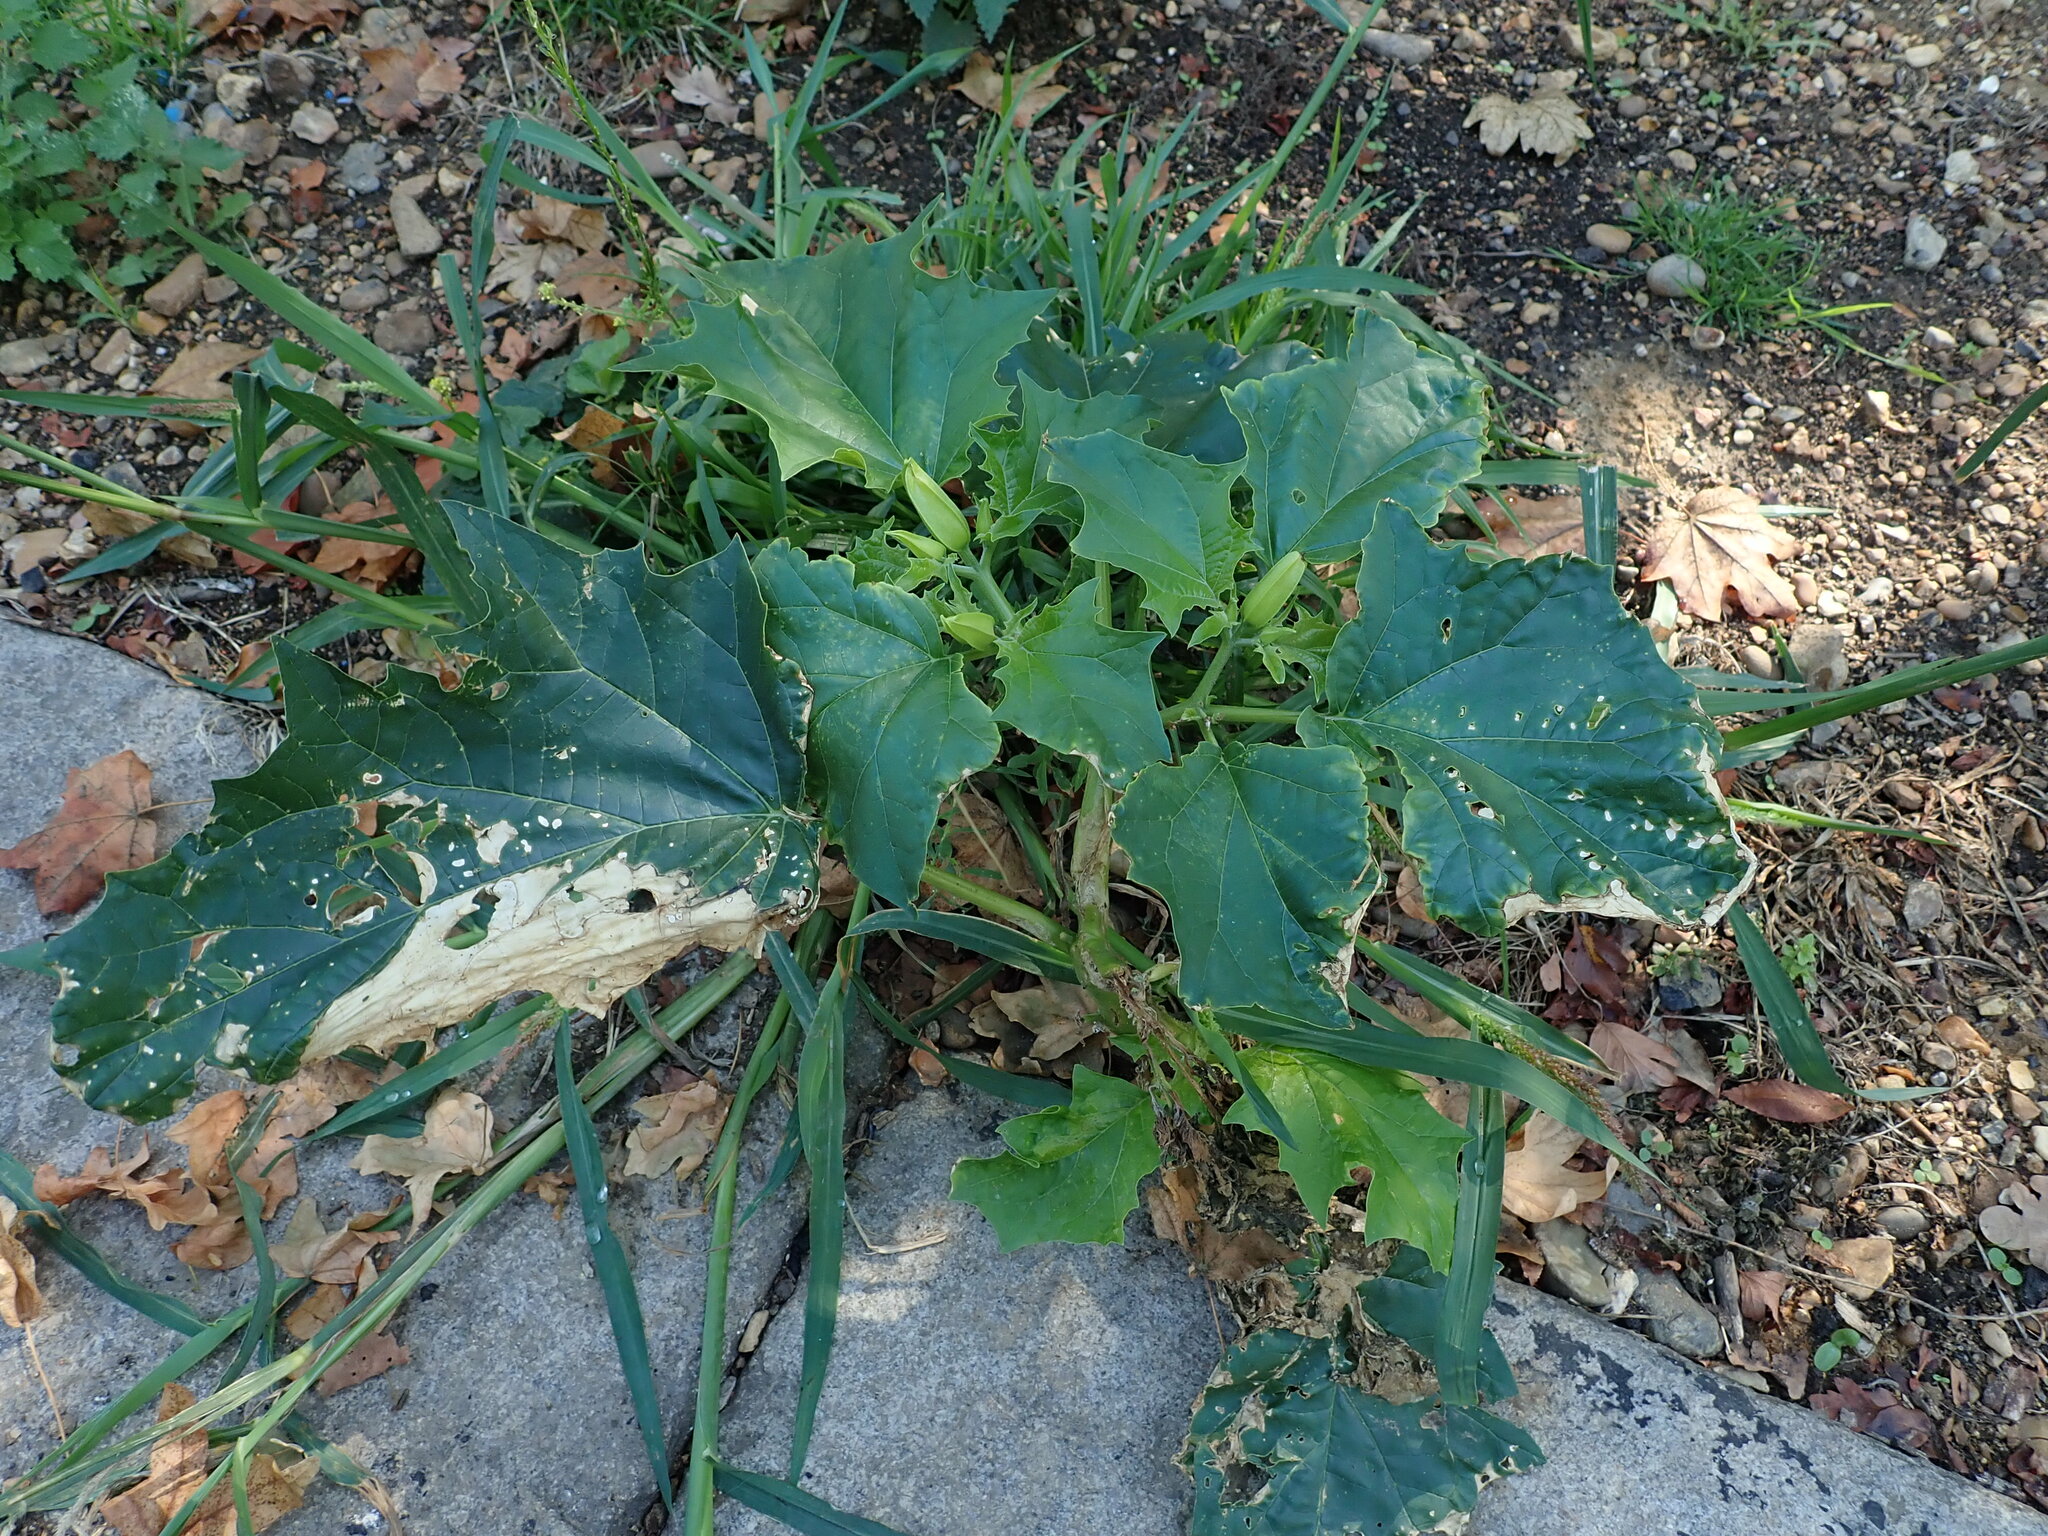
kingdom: Plantae
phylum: Tracheophyta
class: Magnoliopsida
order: Solanales
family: Solanaceae
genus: Datura
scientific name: Datura stramonium
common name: Thorn-apple
